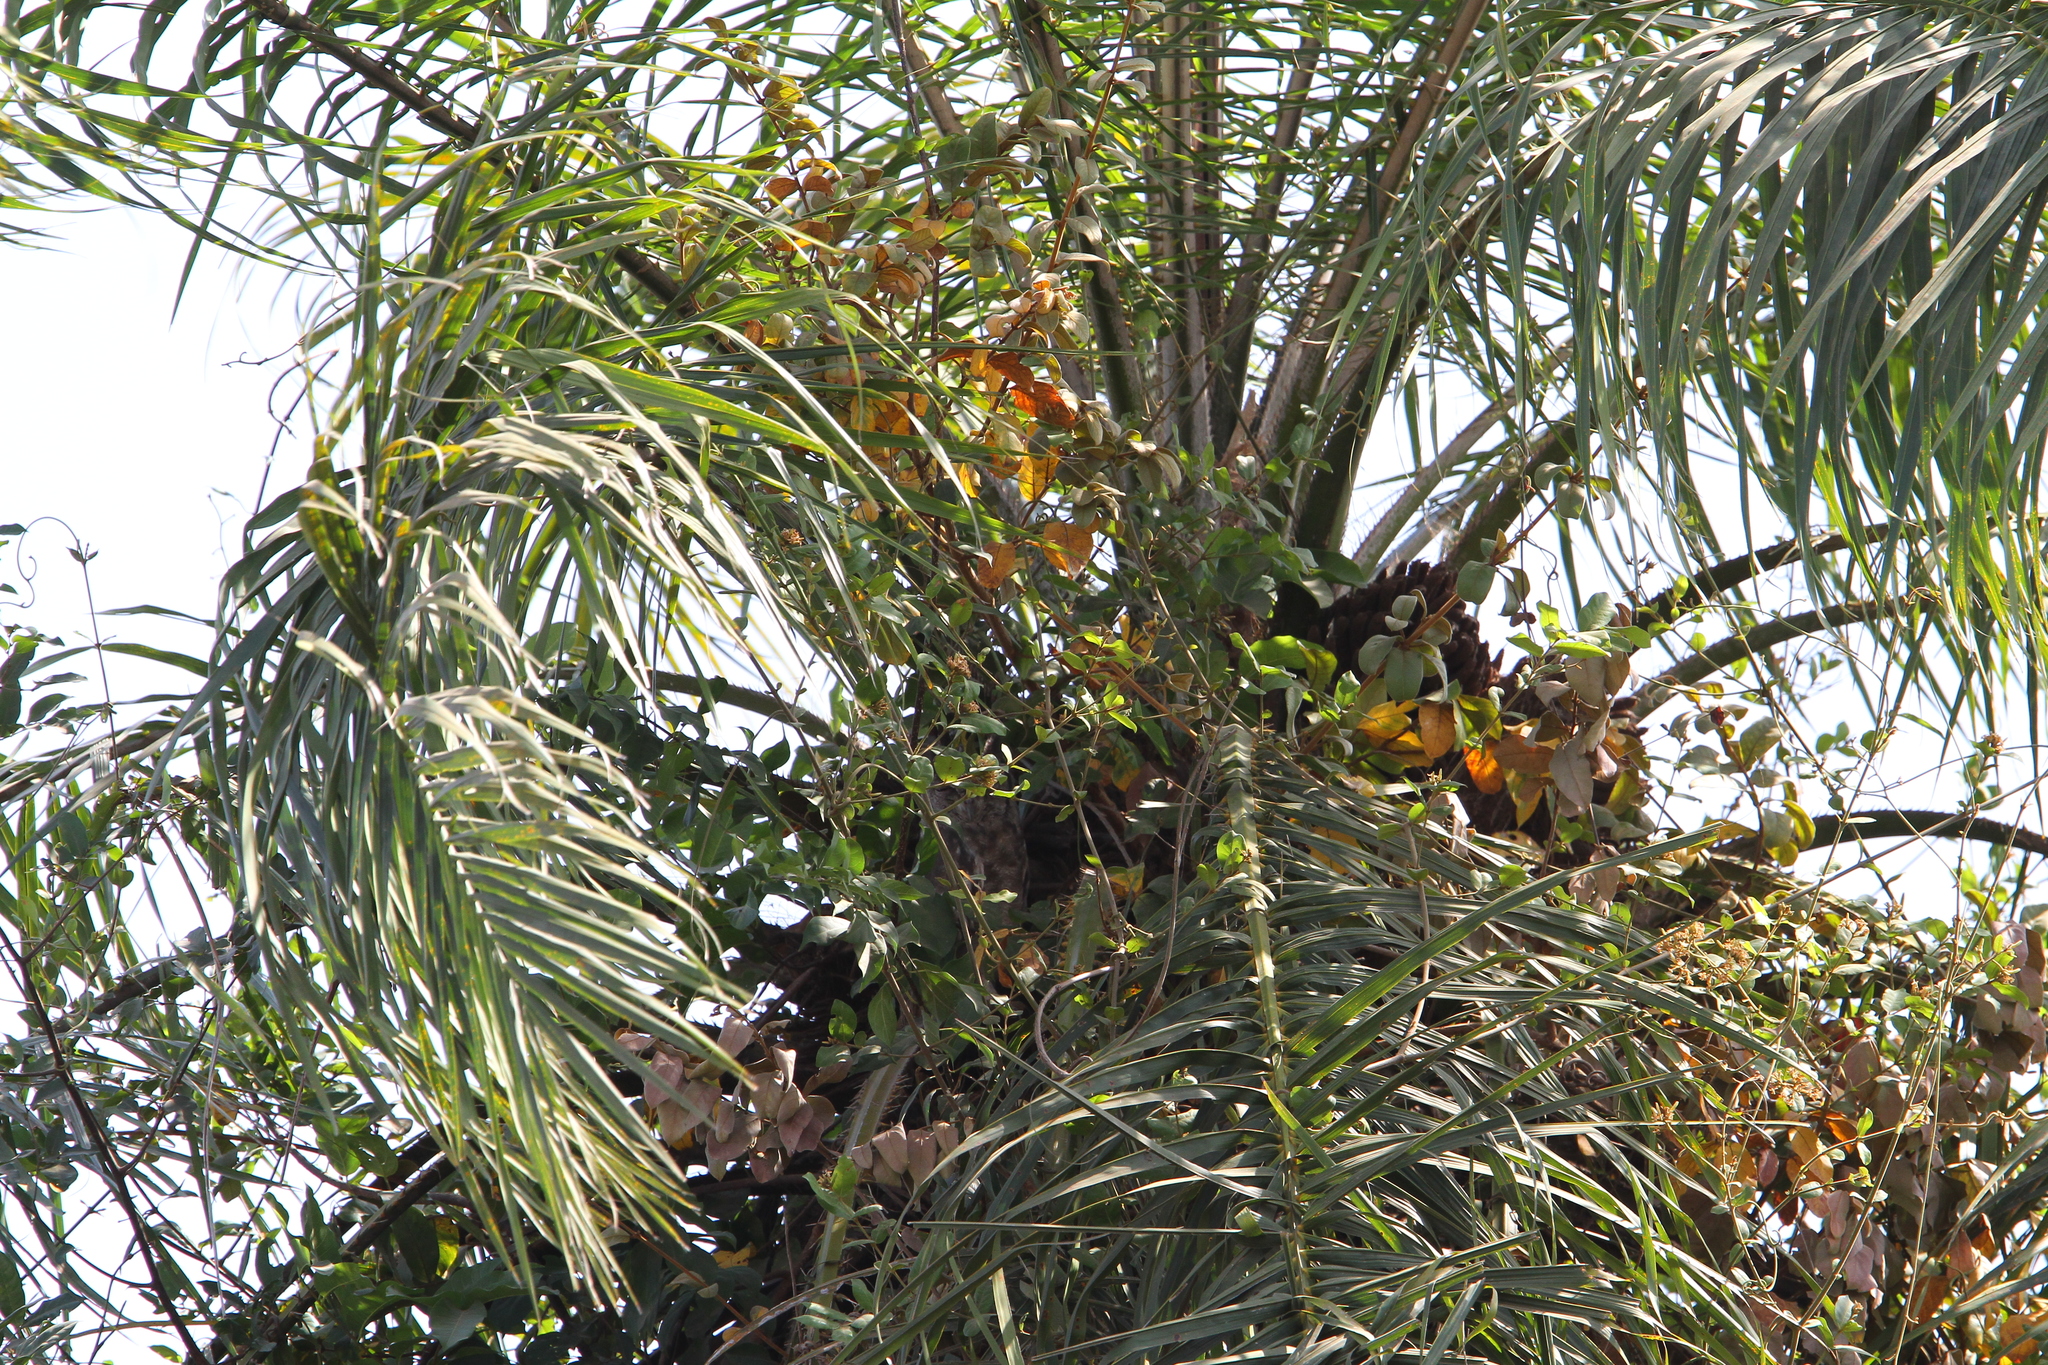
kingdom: Animalia
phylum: Chordata
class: Aves
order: Strigiformes
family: Strigidae
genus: Bubo
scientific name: Bubo cinerascens
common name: Greyish eagle-owl
